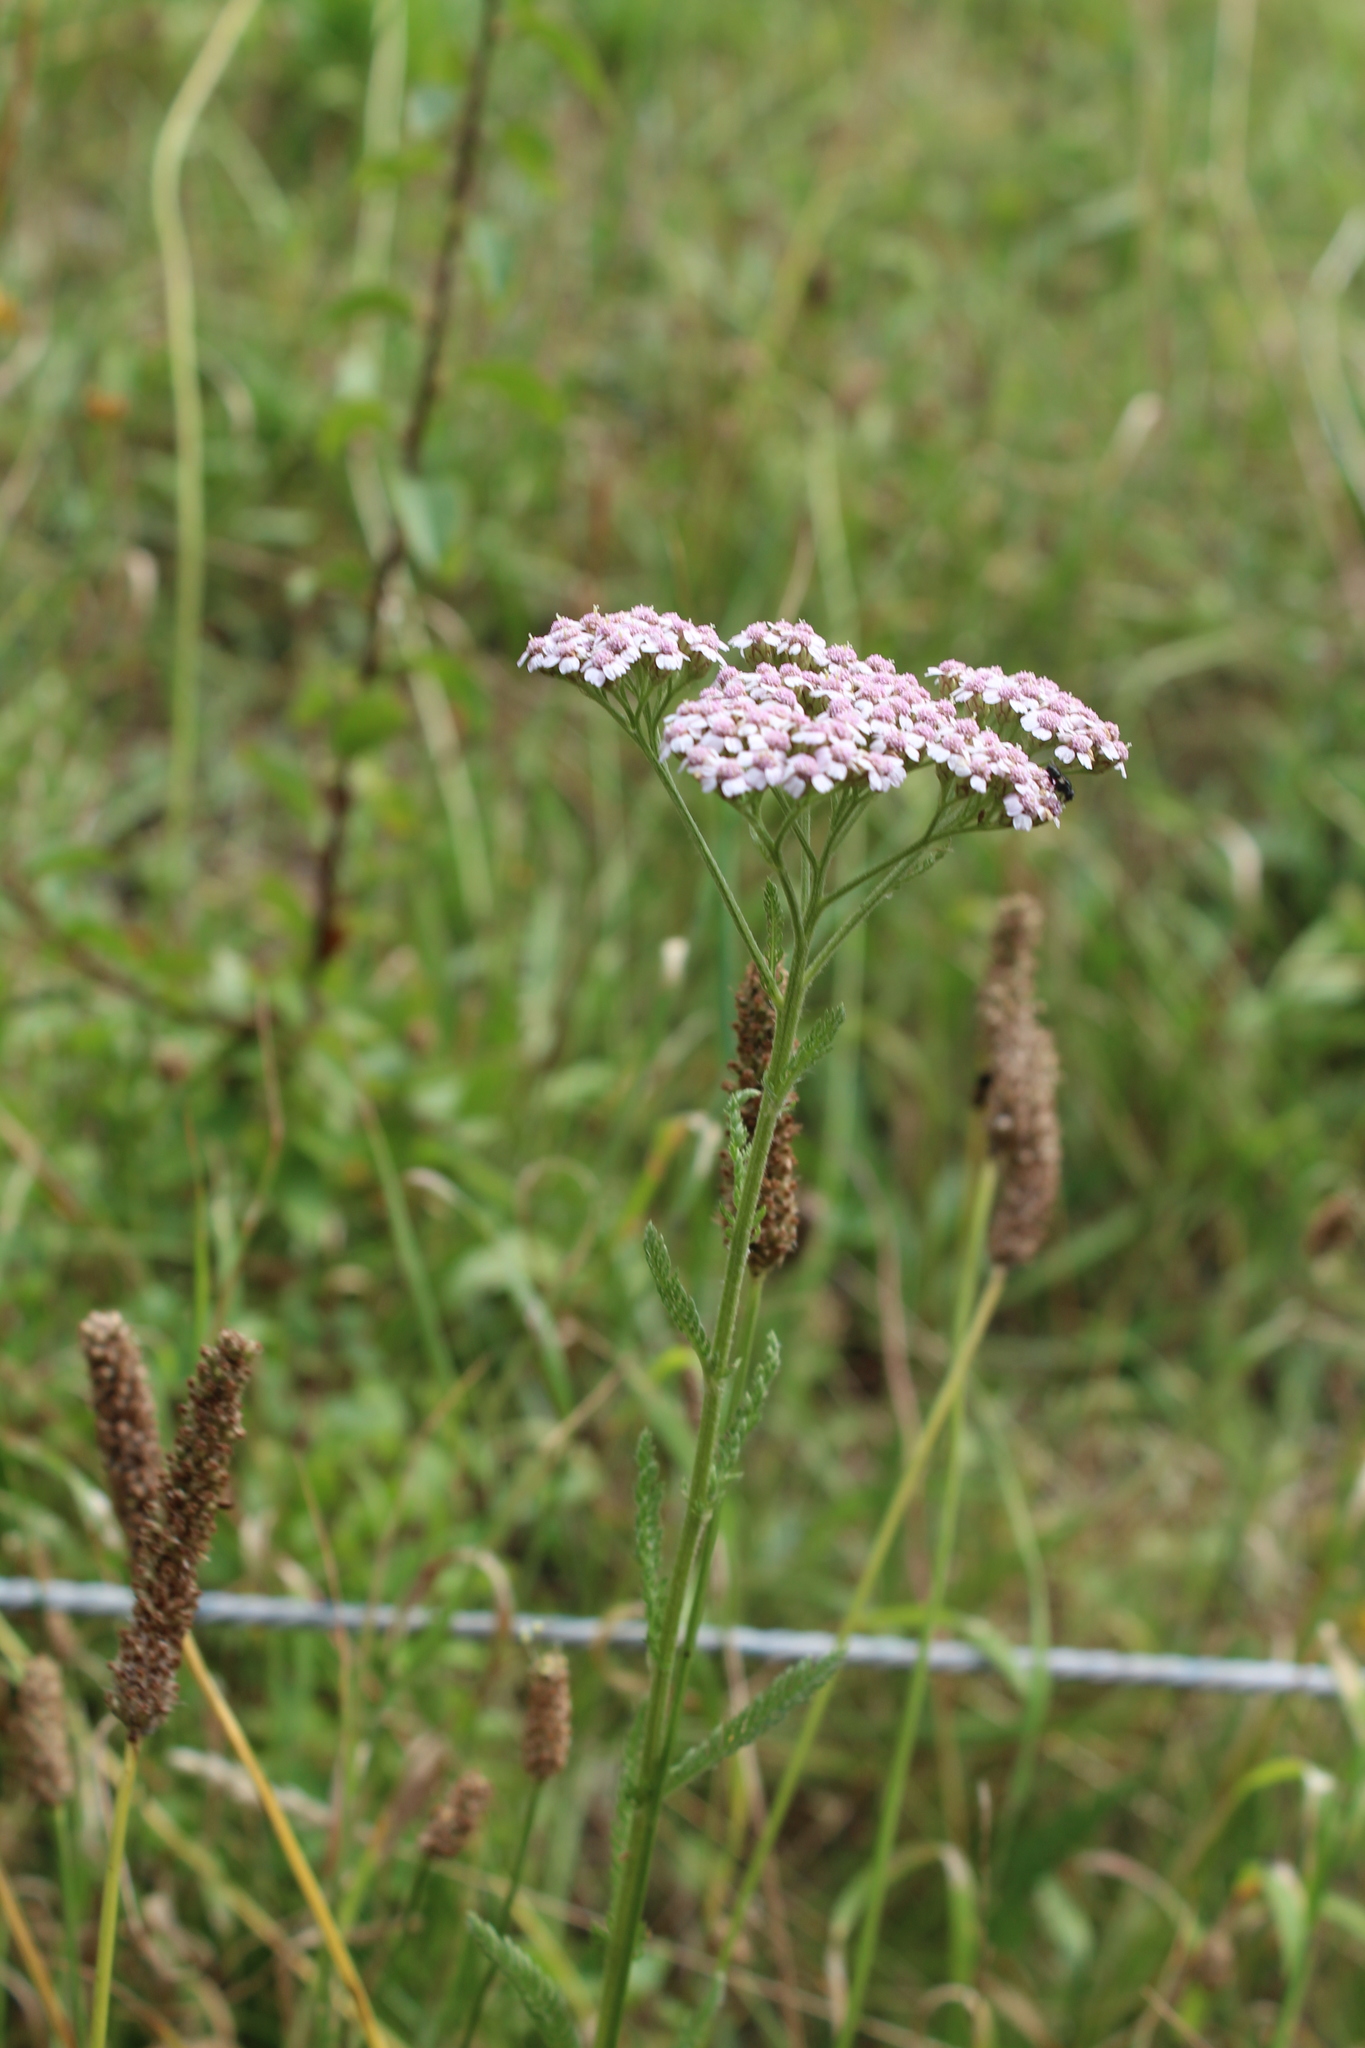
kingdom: Plantae
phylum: Tracheophyta
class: Magnoliopsida
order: Asterales
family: Asteraceae
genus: Achillea
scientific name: Achillea millefolium
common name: Yarrow
